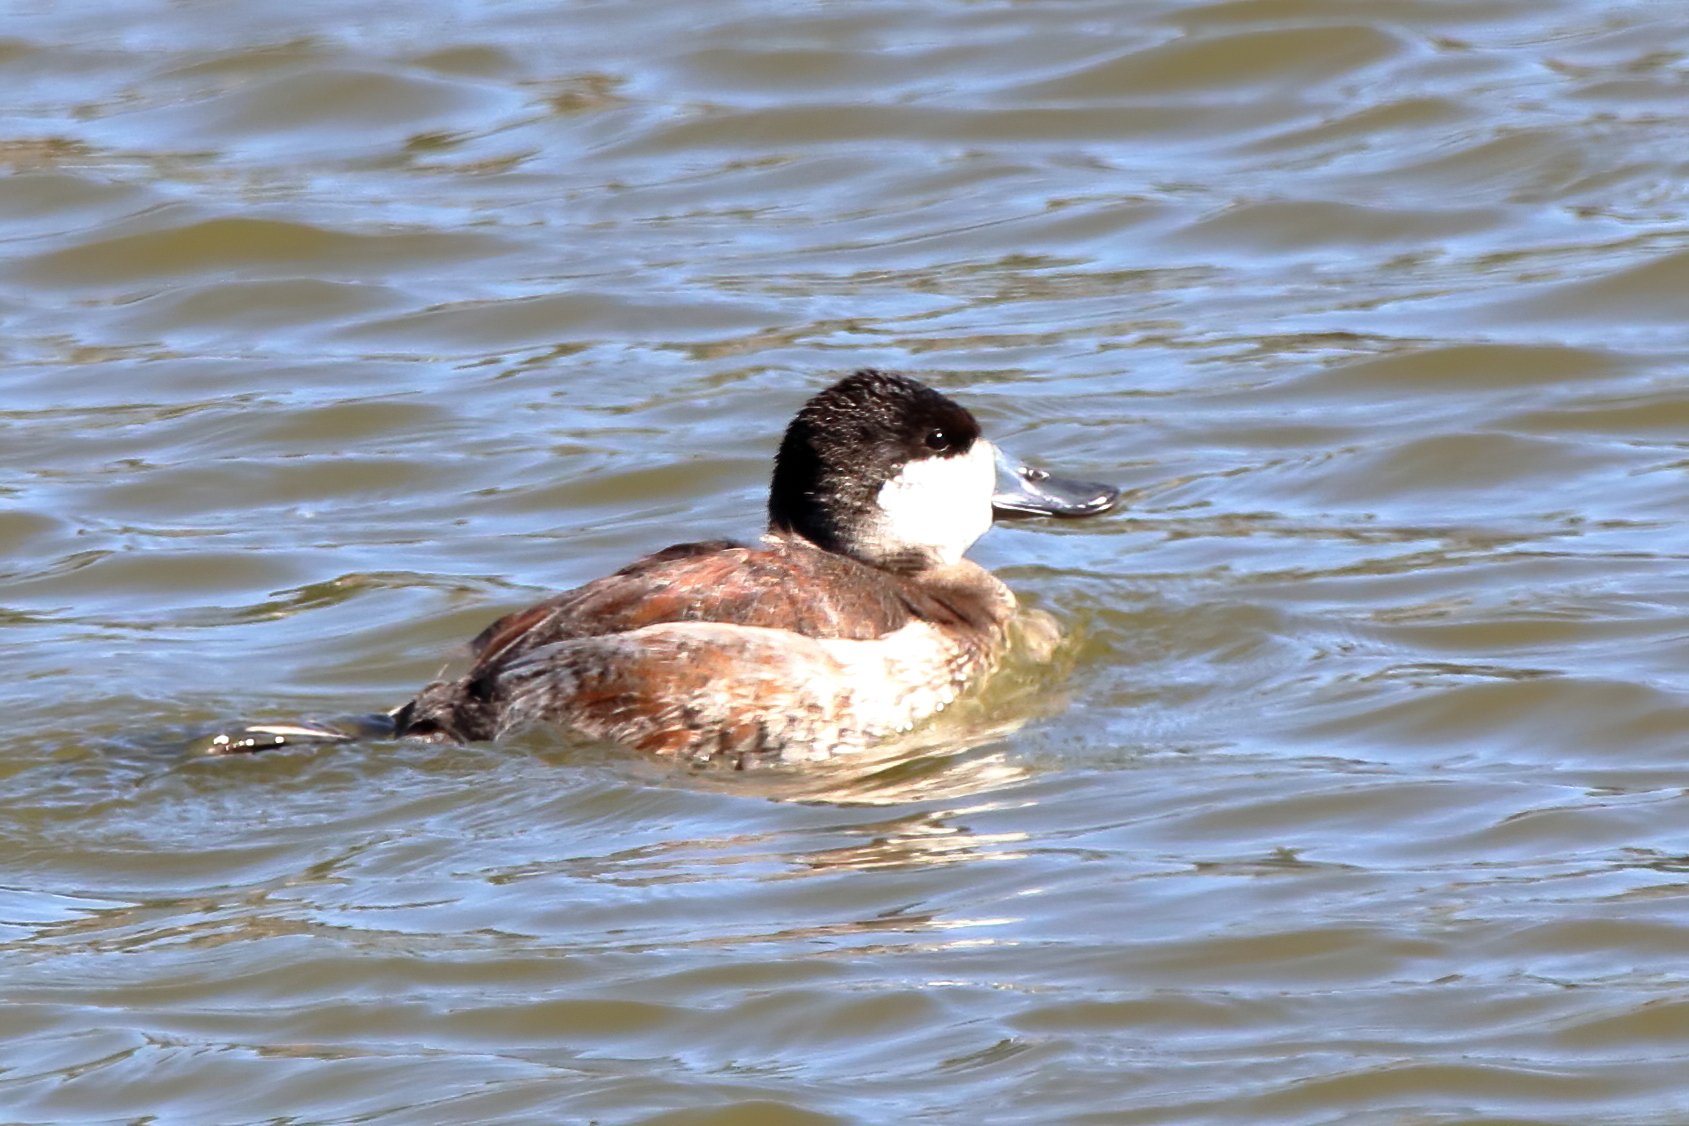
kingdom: Animalia
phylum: Chordata
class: Aves
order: Anseriformes
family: Anatidae
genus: Oxyura
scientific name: Oxyura jamaicensis
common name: Ruddy duck
